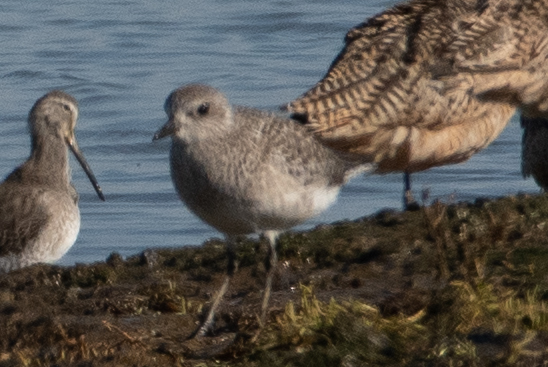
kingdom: Animalia
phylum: Chordata
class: Aves
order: Charadriiformes
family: Charadriidae
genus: Pluvialis
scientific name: Pluvialis squatarola
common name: Grey plover
